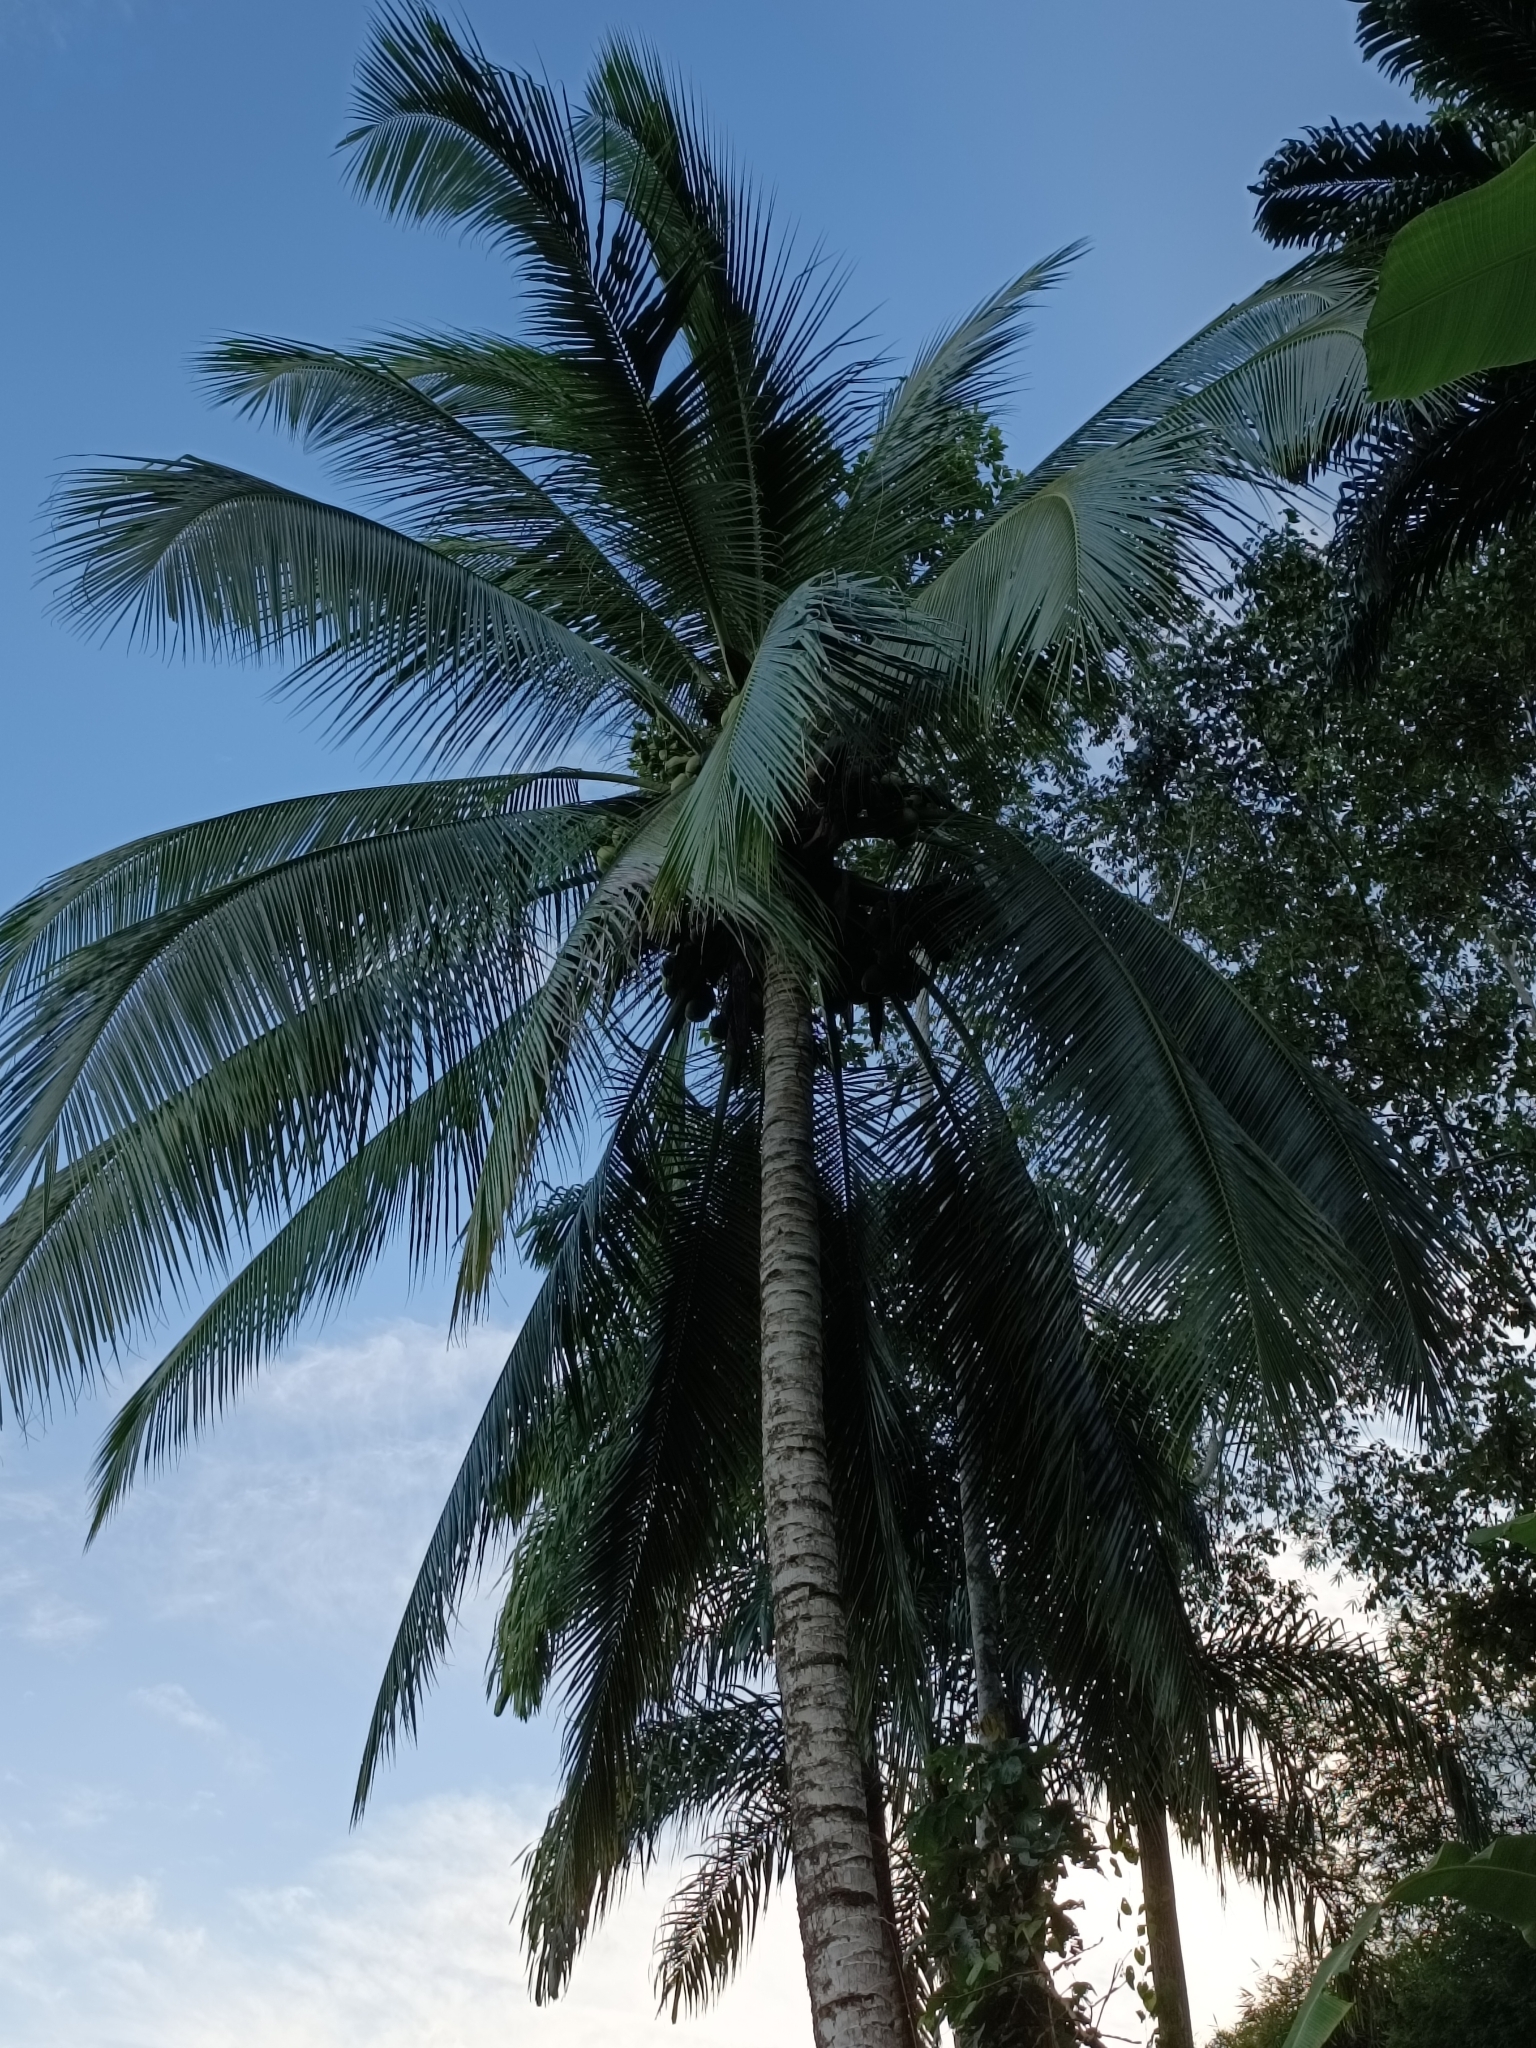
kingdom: Plantae
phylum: Tracheophyta
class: Liliopsida
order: Arecales
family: Arecaceae
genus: Cocos
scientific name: Cocos nucifera
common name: Coconut palm
